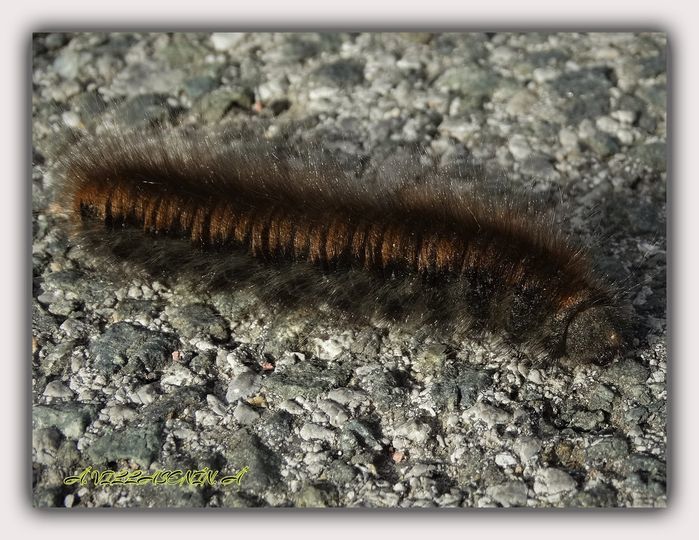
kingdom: Animalia
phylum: Arthropoda
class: Insecta
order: Lepidoptera
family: Lasiocampidae
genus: Macrothylacia
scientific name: Macrothylacia rubi
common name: Fox moth
